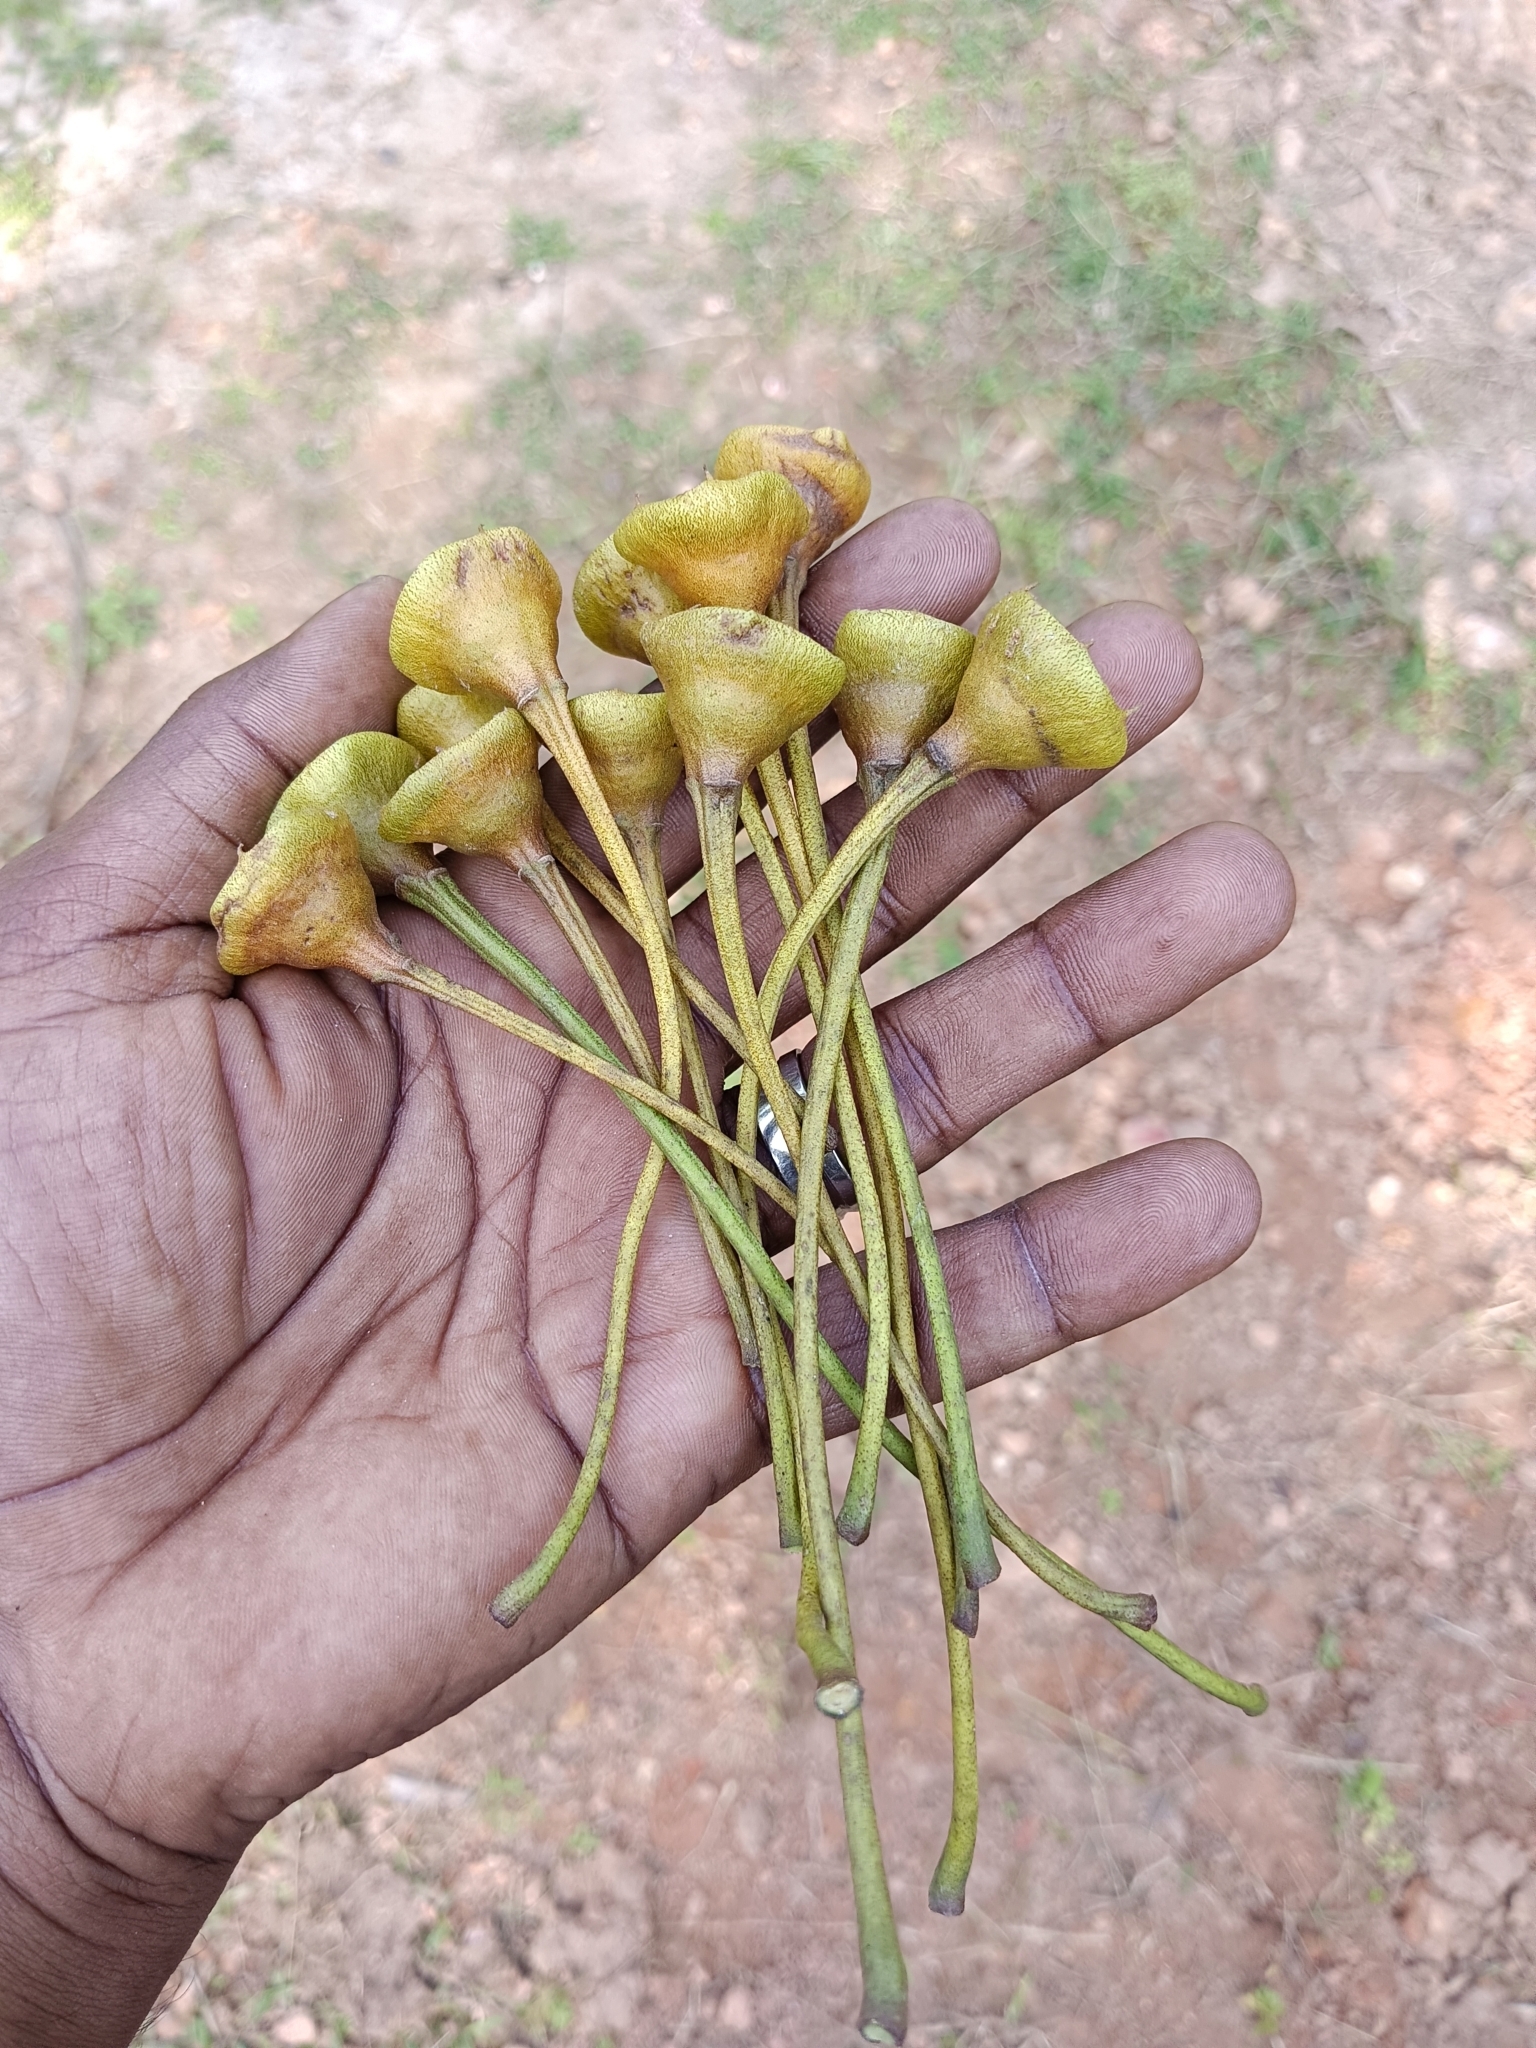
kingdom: Plantae
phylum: Tracheophyta
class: Magnoliopsida
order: Malvales
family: Malvaceae
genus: Thespesia
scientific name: Thespesia populnea
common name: Seaside mahoe
